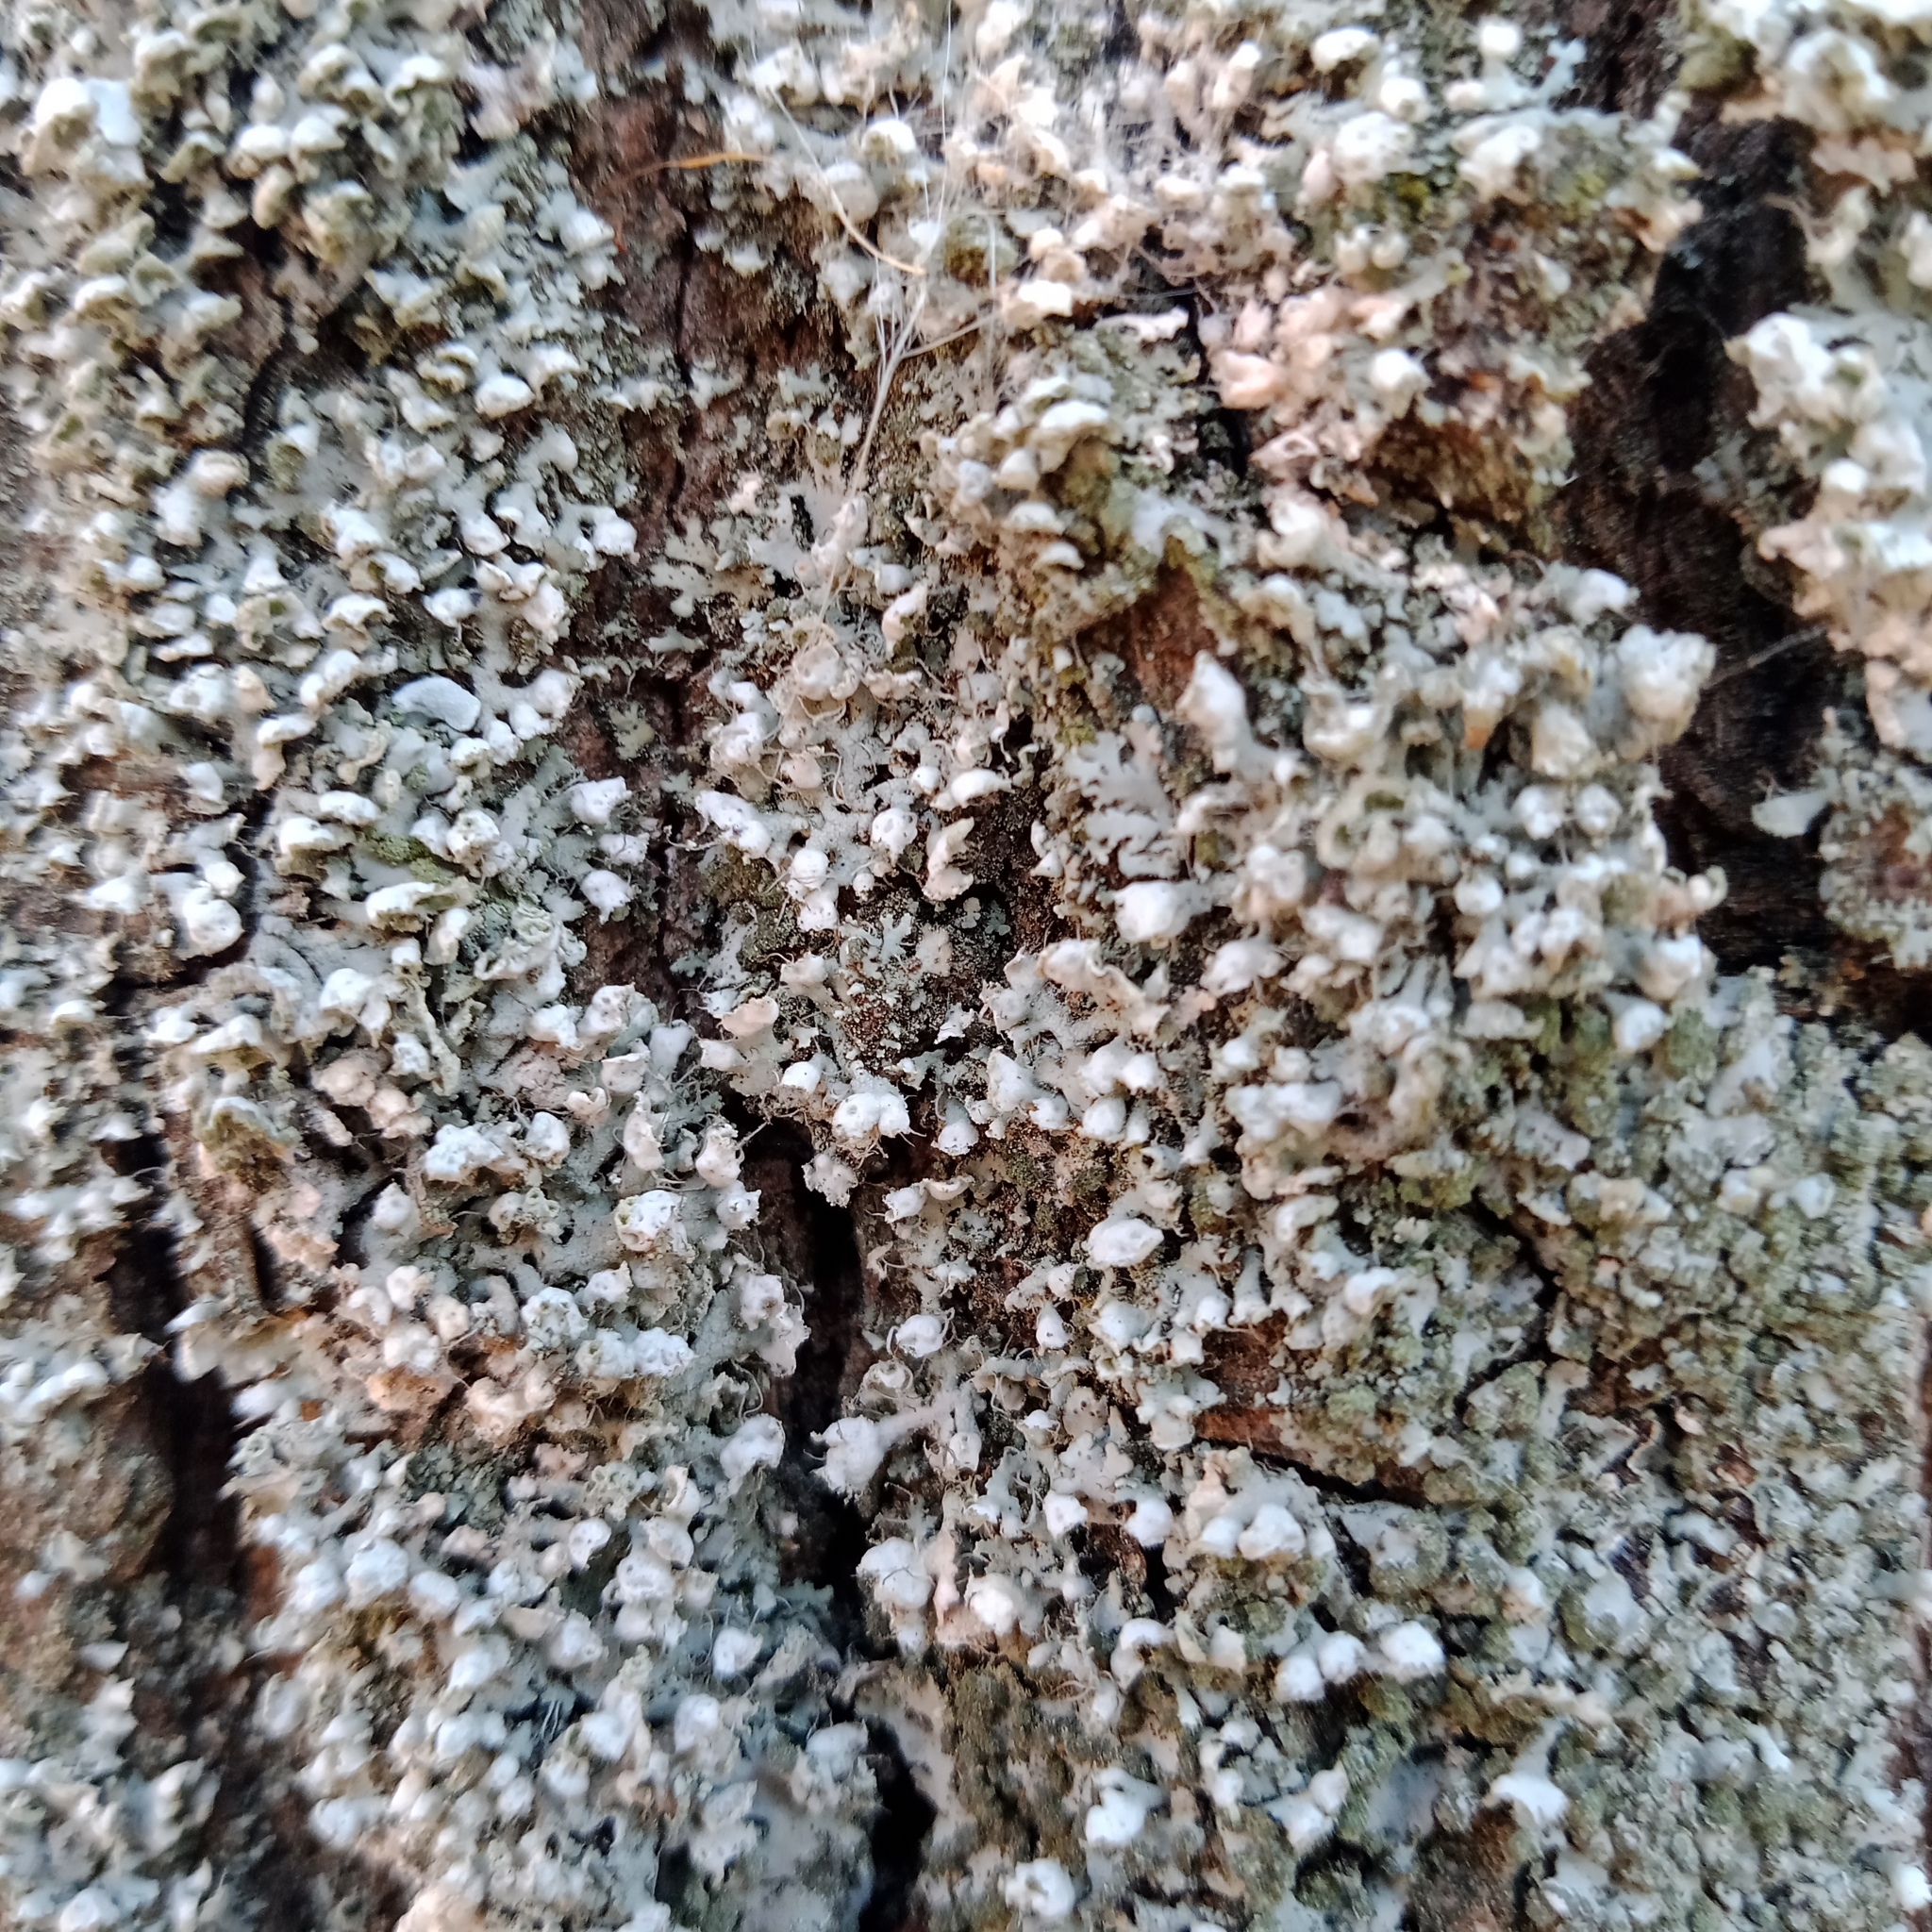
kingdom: Fungi
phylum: Ascomycota
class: Lecanoromycetes
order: Caliciales
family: Physciaceae
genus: Physcia
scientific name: Physcia adscendens
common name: Hooded rosette lichen
